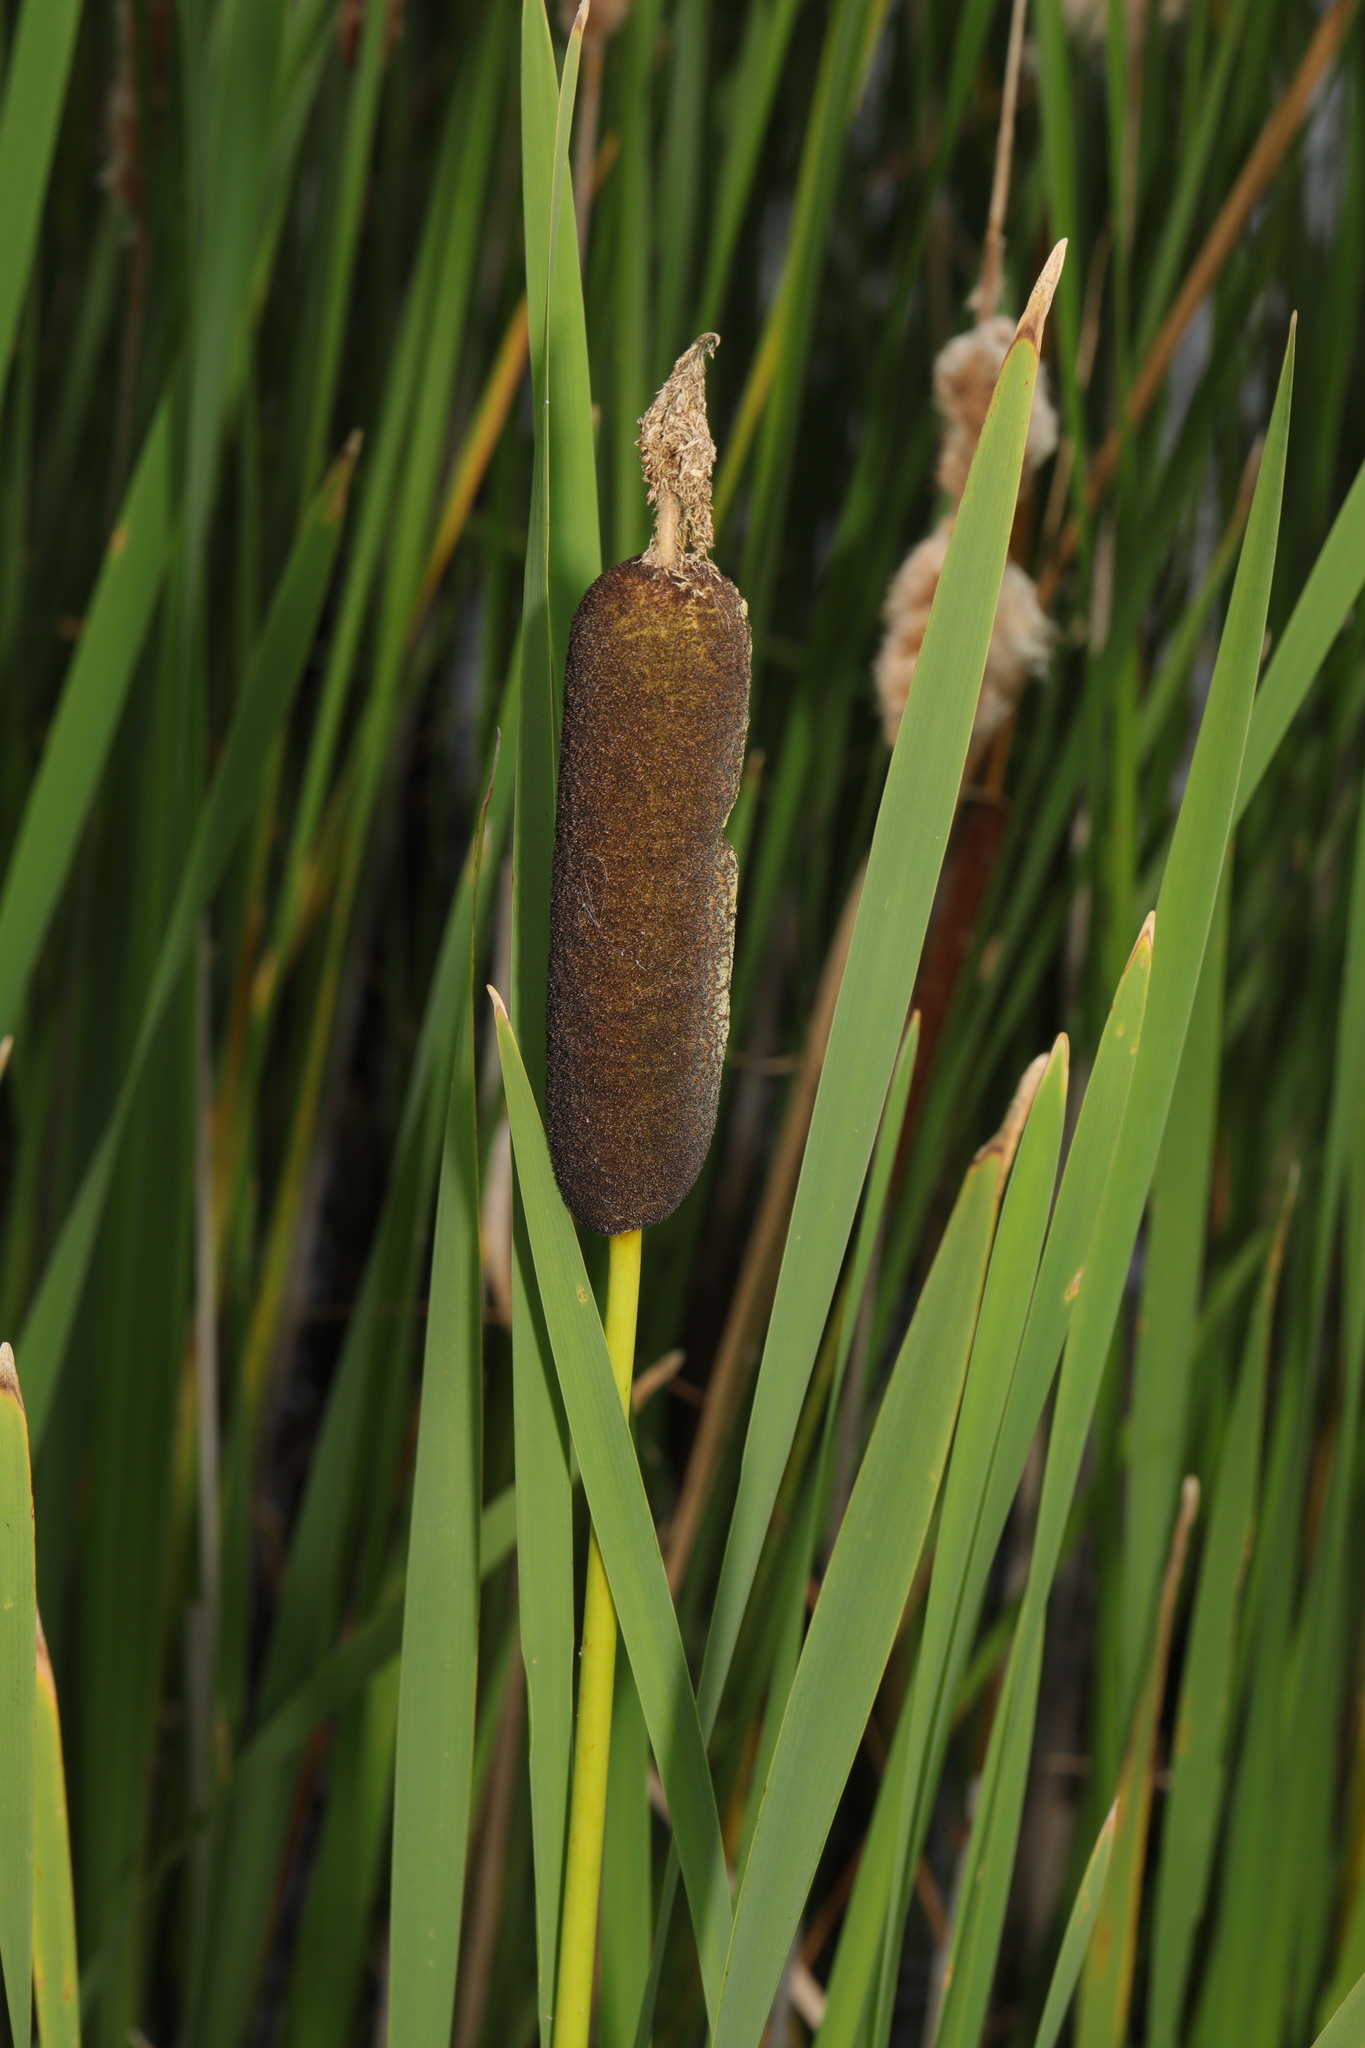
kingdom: Plantae
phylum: Tracheophyta
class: Liliopsida
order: Poales
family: Typhaceae
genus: Typha
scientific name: Typha latifolia
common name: Broadleaf cattail
